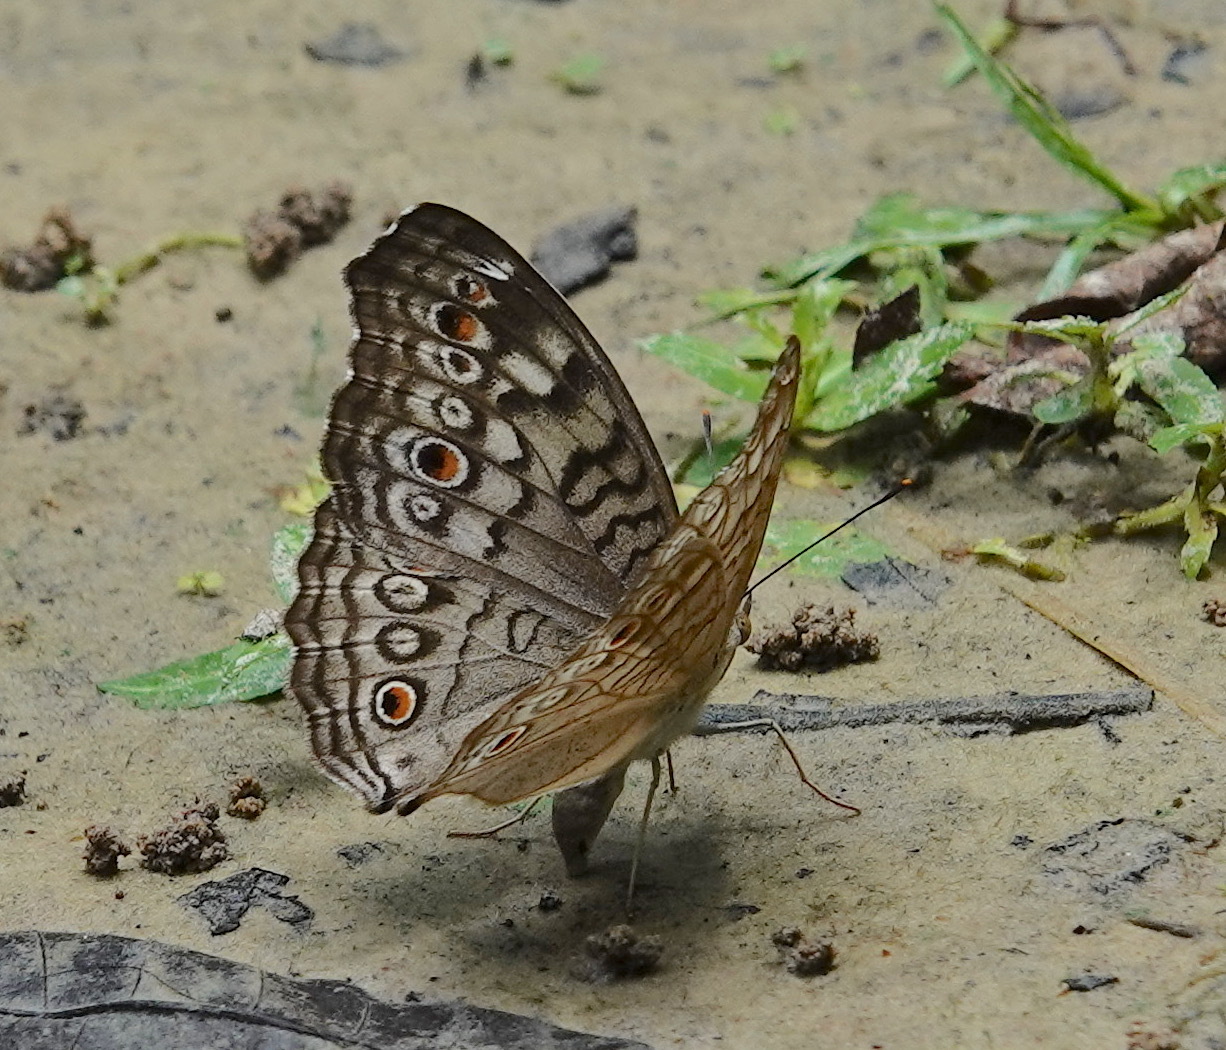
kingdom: Animalia
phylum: Arthropoda
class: Insecta
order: Lepidoptera
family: Nymphalidae
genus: Junonia
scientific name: Junonia atlites
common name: Grey pansy
